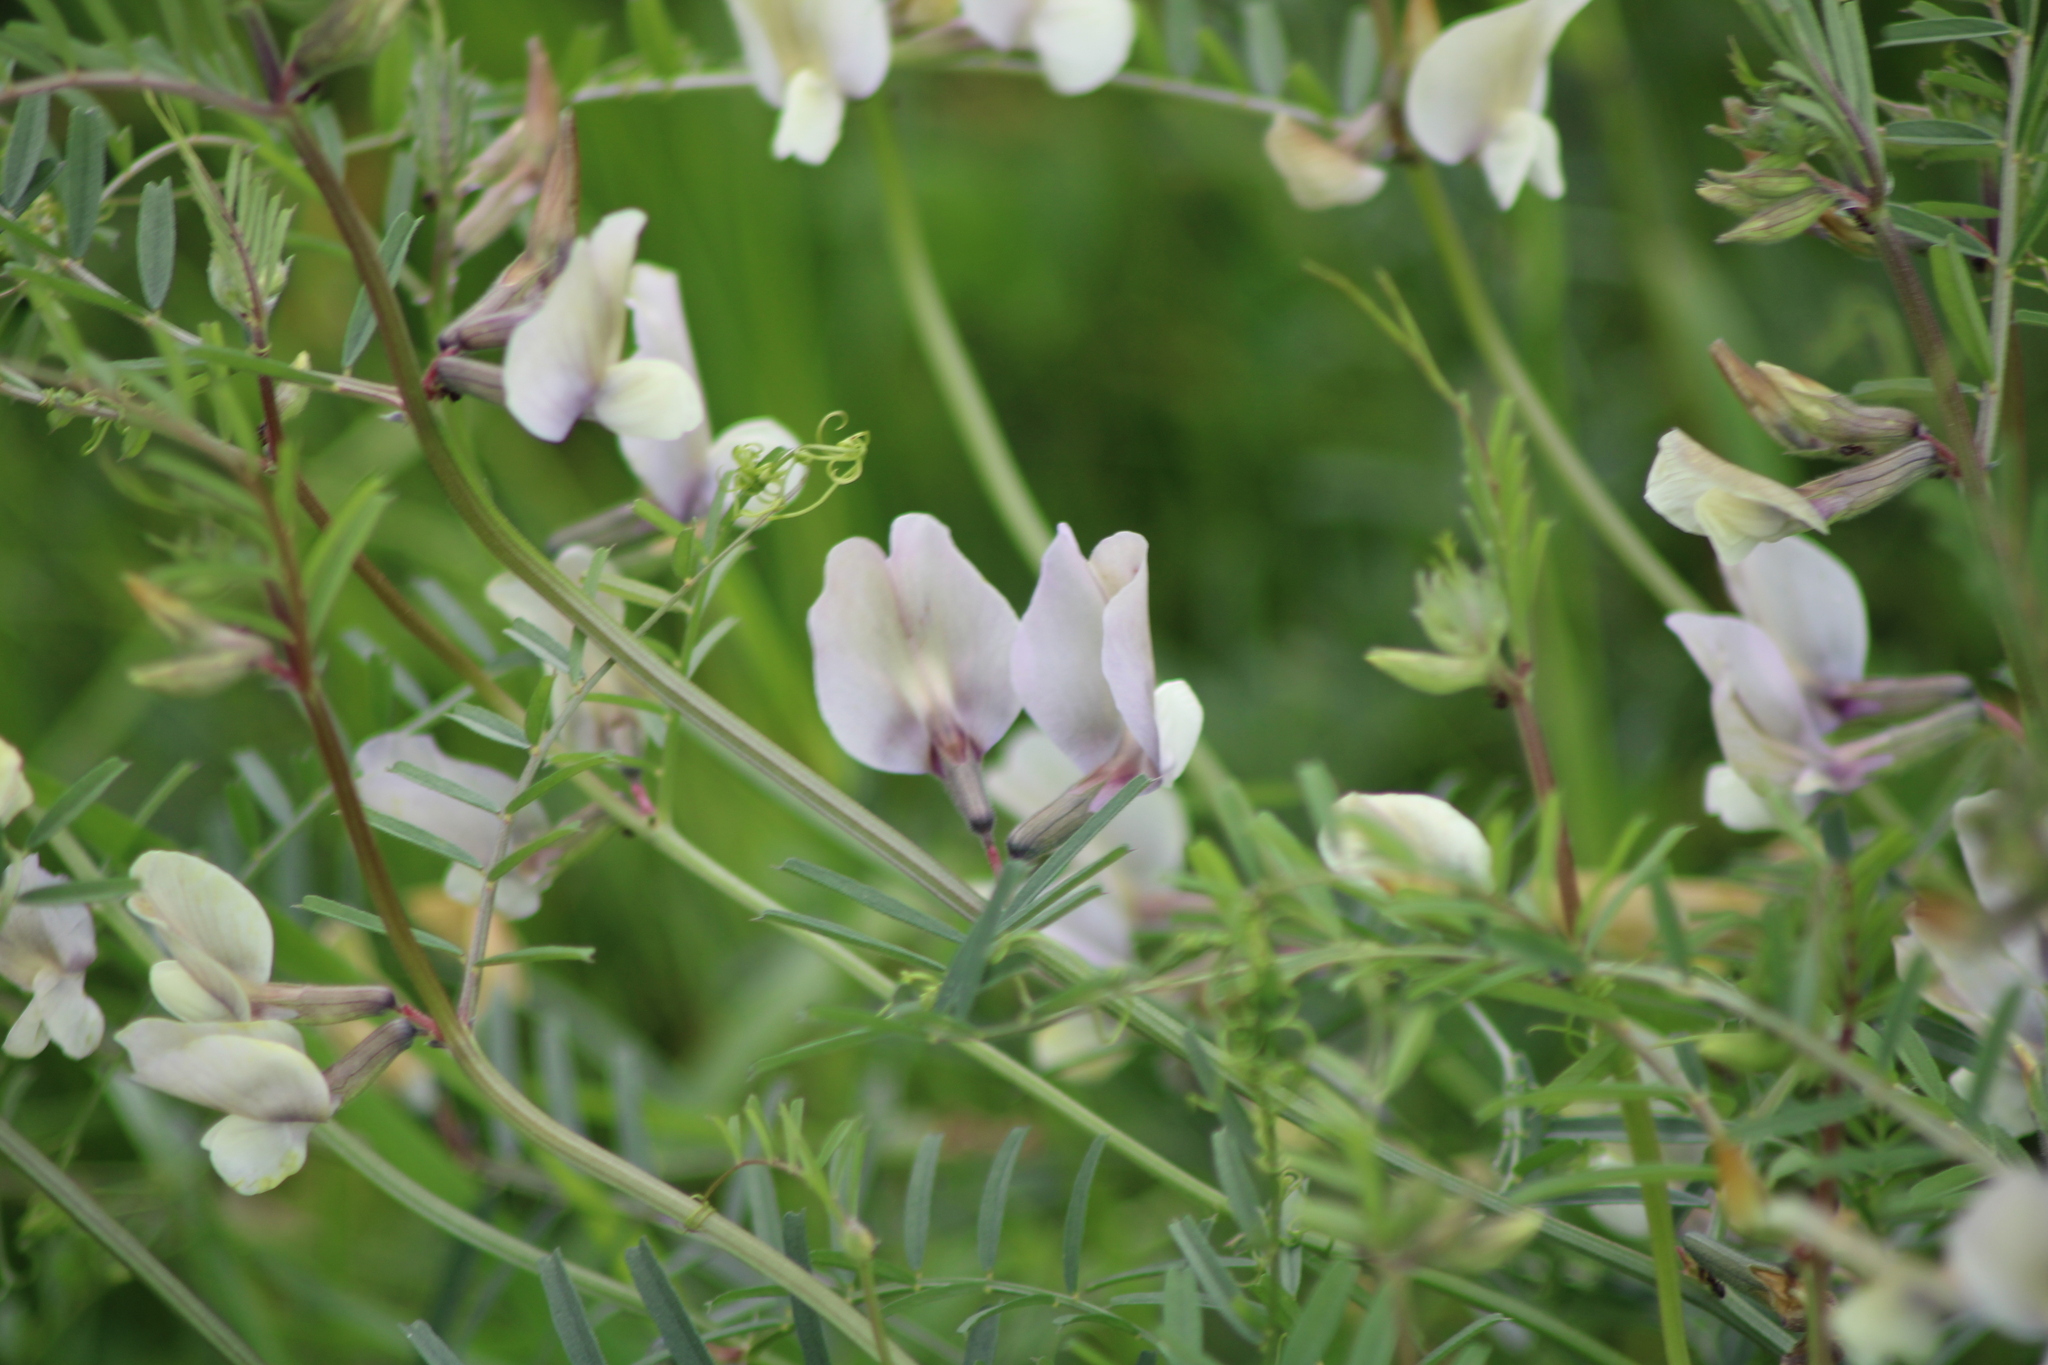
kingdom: Plantae
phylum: Tracheophyta
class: Magnoliopsida
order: Fabales
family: Fabaceae
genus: Vicia
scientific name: Vicia grandiflora
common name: Large yellow vetch
